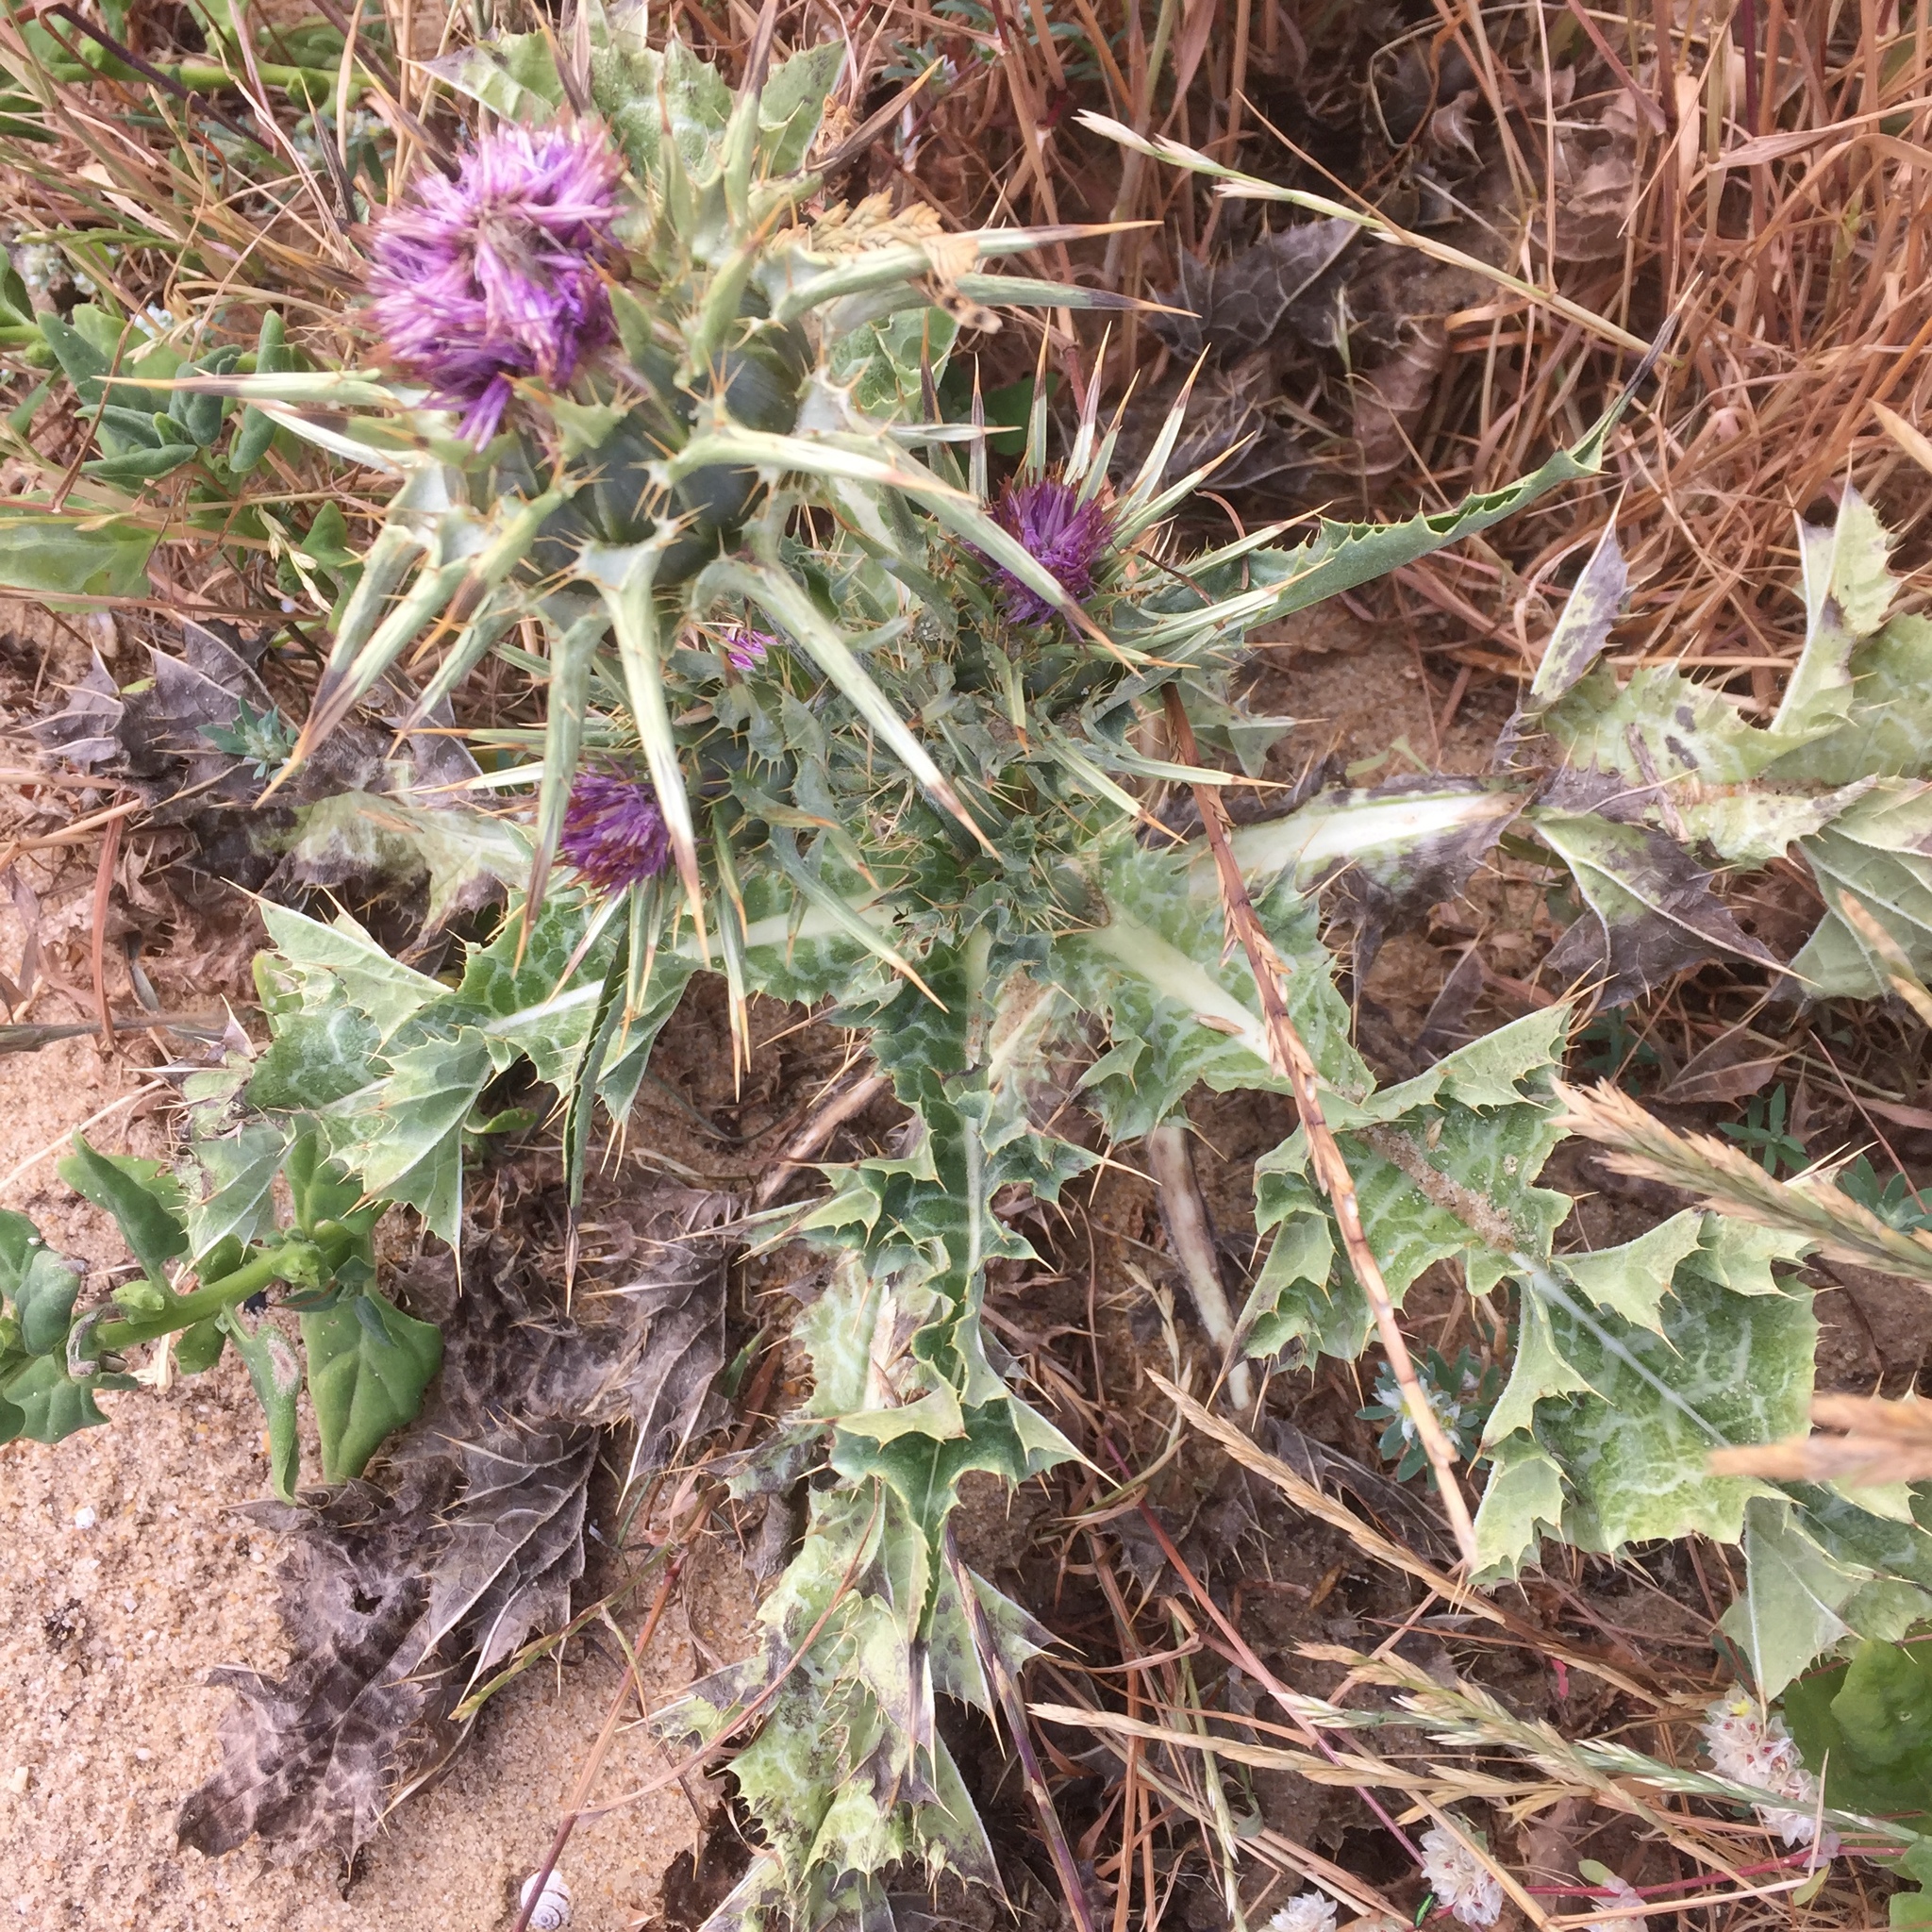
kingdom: Plantae
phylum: Tracheophyta
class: Magnoliopsida
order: Asterales
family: Asteraceae
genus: Silybum
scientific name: Silybum marianum
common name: Milk thistle
